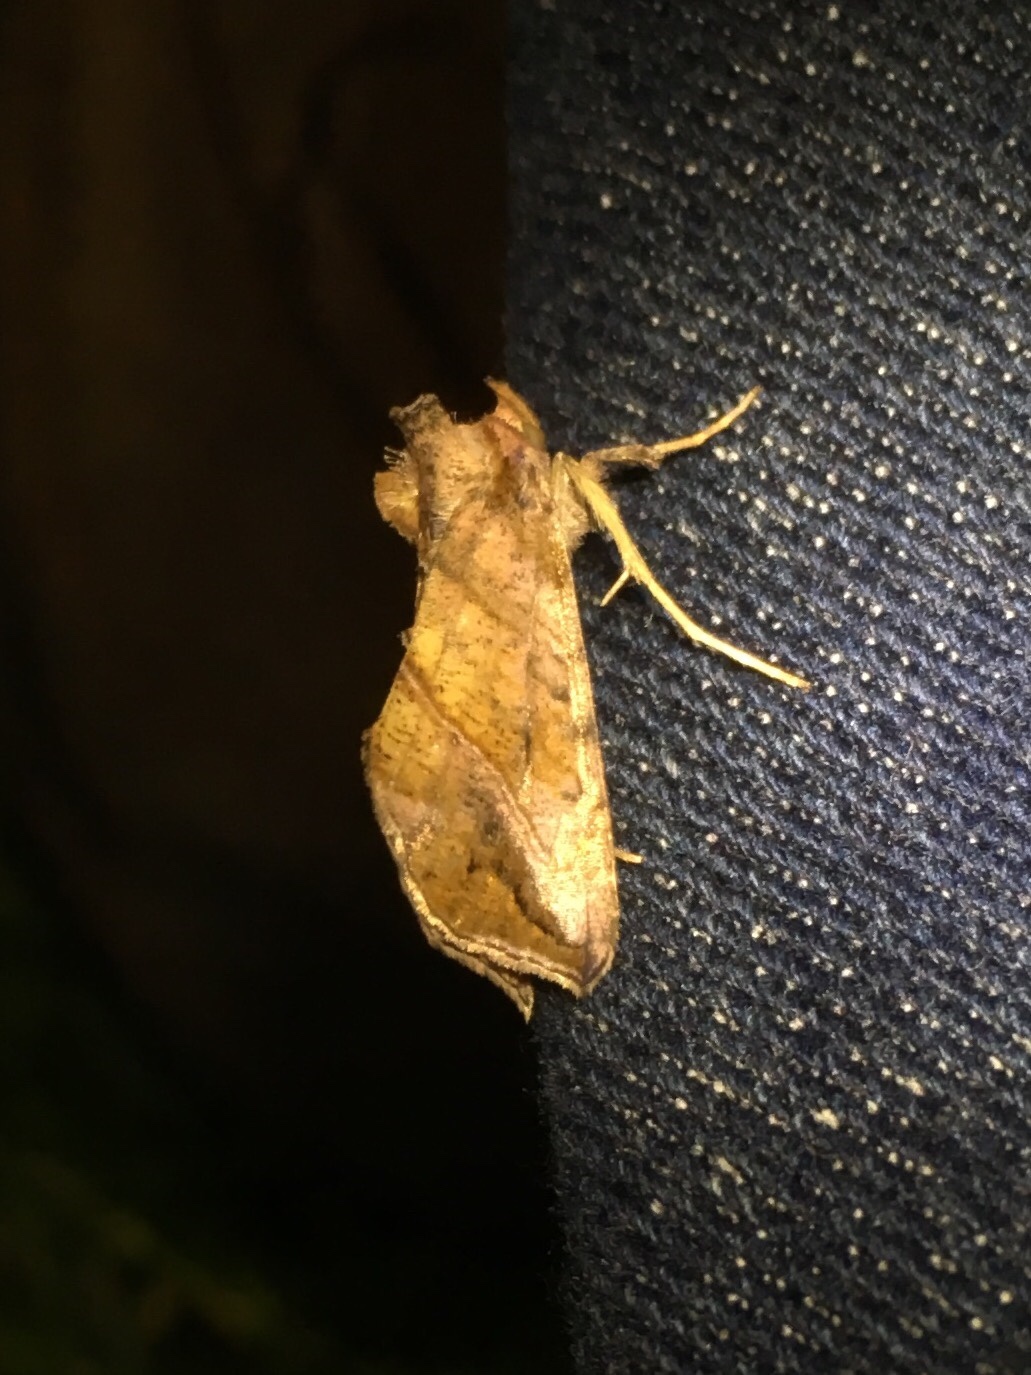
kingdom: Animalia
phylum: Arthropoda
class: Insecta
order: Lepidoptera
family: Noctuidae
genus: Pseudeva
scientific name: Pseudeva purpurigera
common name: Straight-lined looper moth
